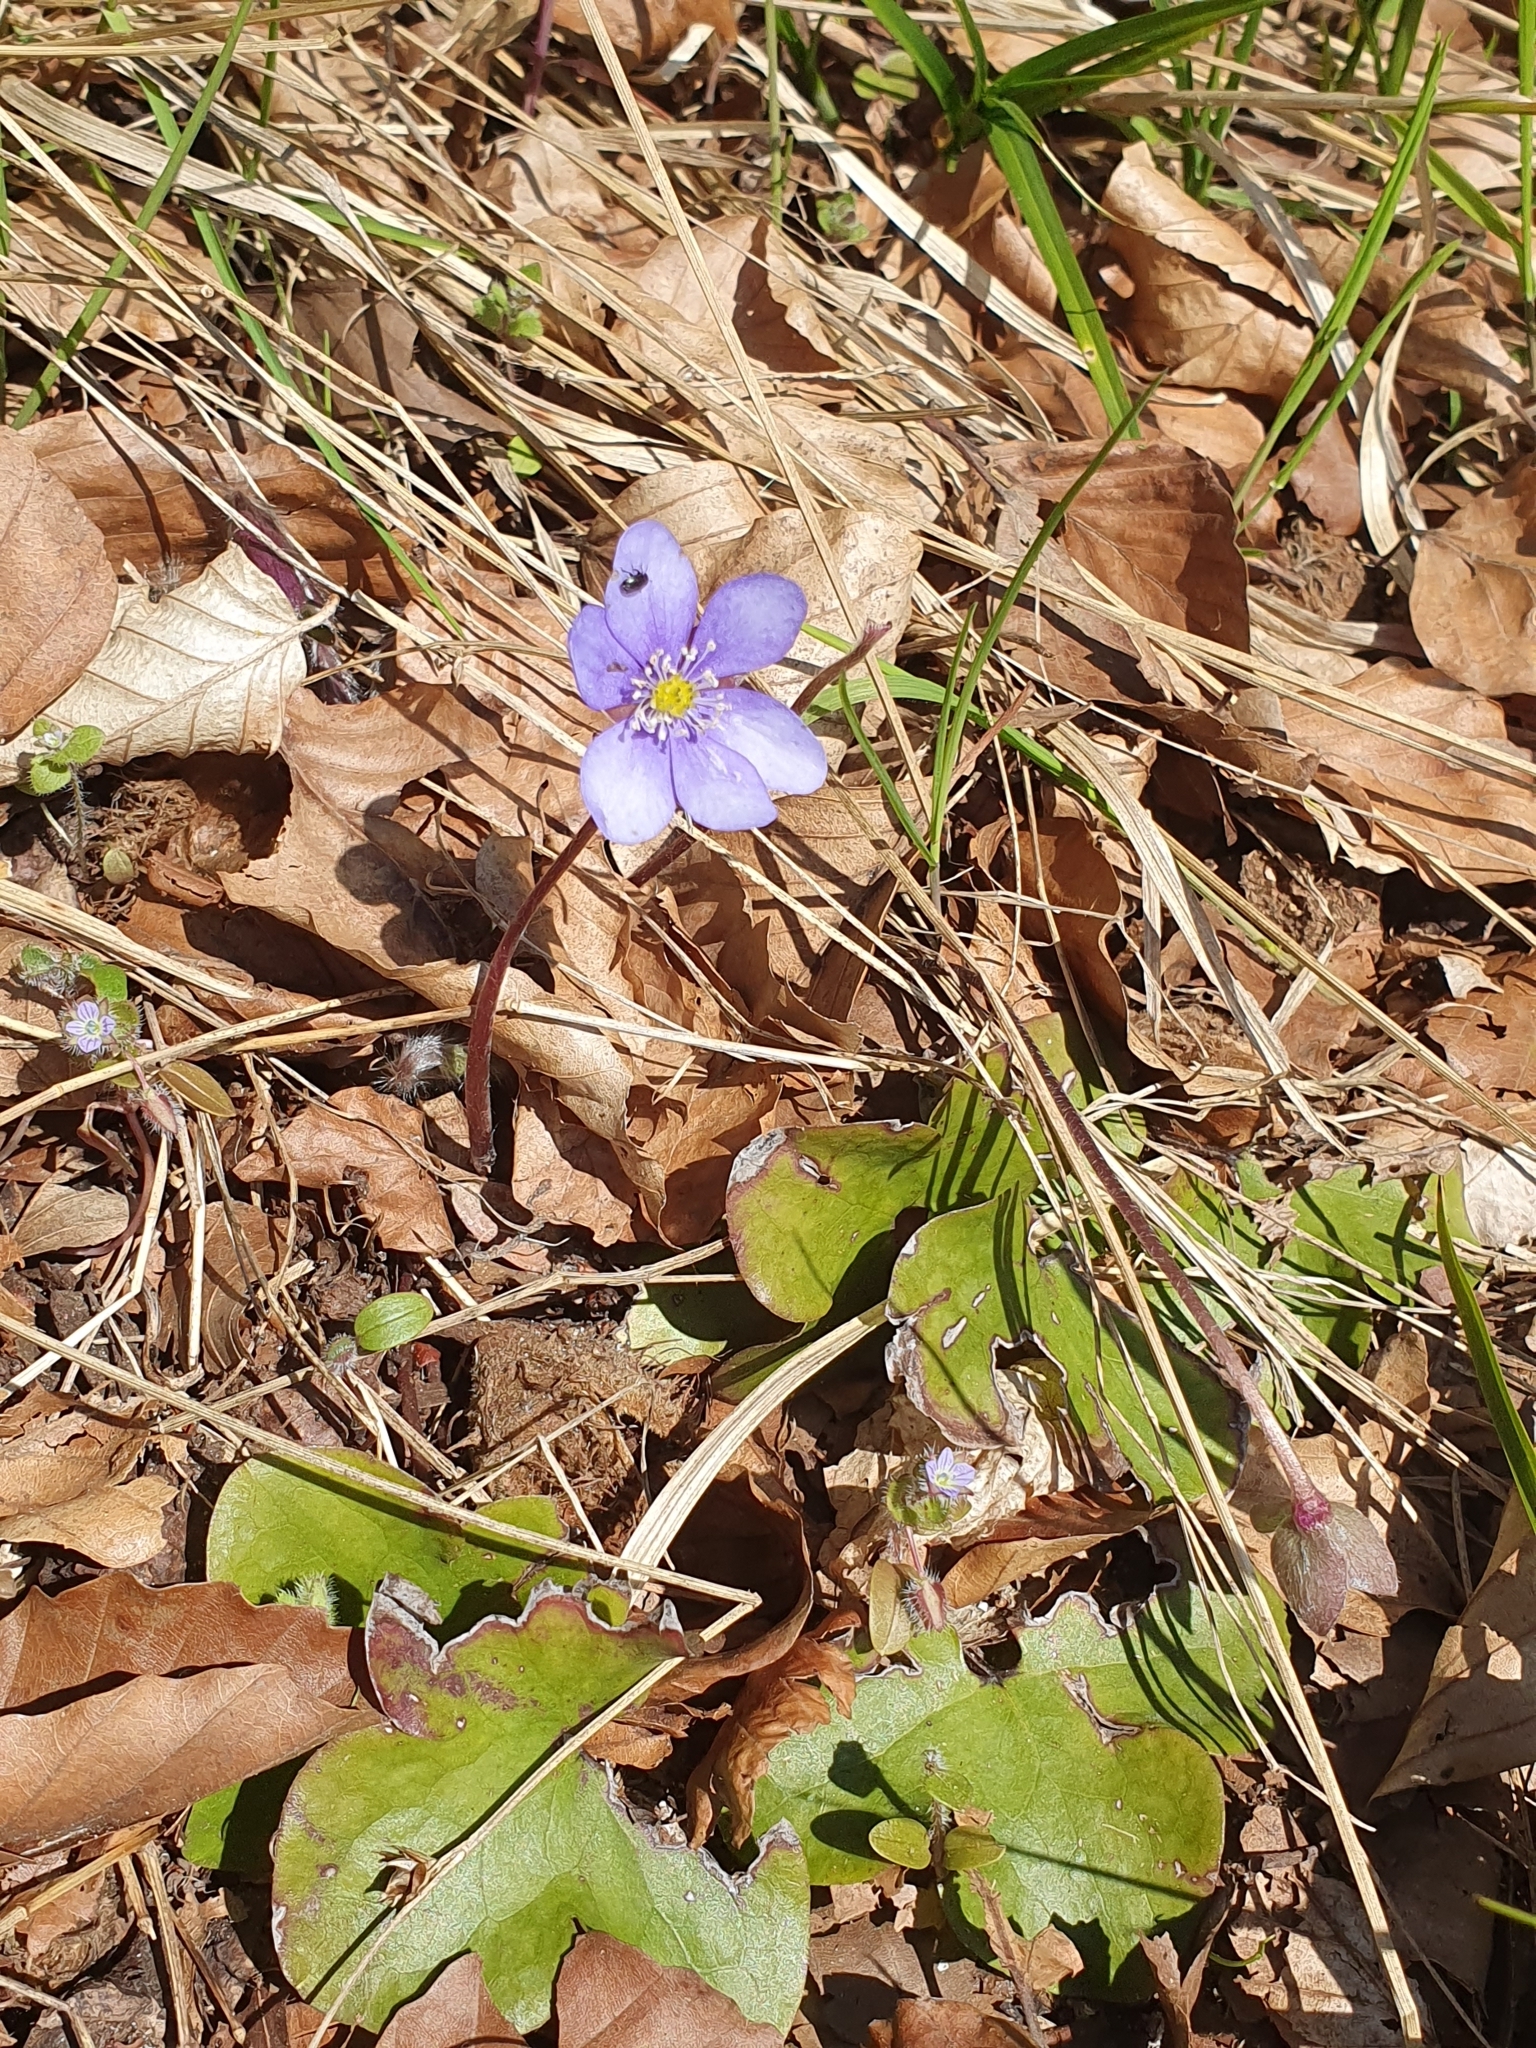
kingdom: Plantae
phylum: Tracheophyta
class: Magnoliopsida
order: Ranunculales
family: Ranunculaceae
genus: Hepatica
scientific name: Hepatica nobilis
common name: Liverleaf
